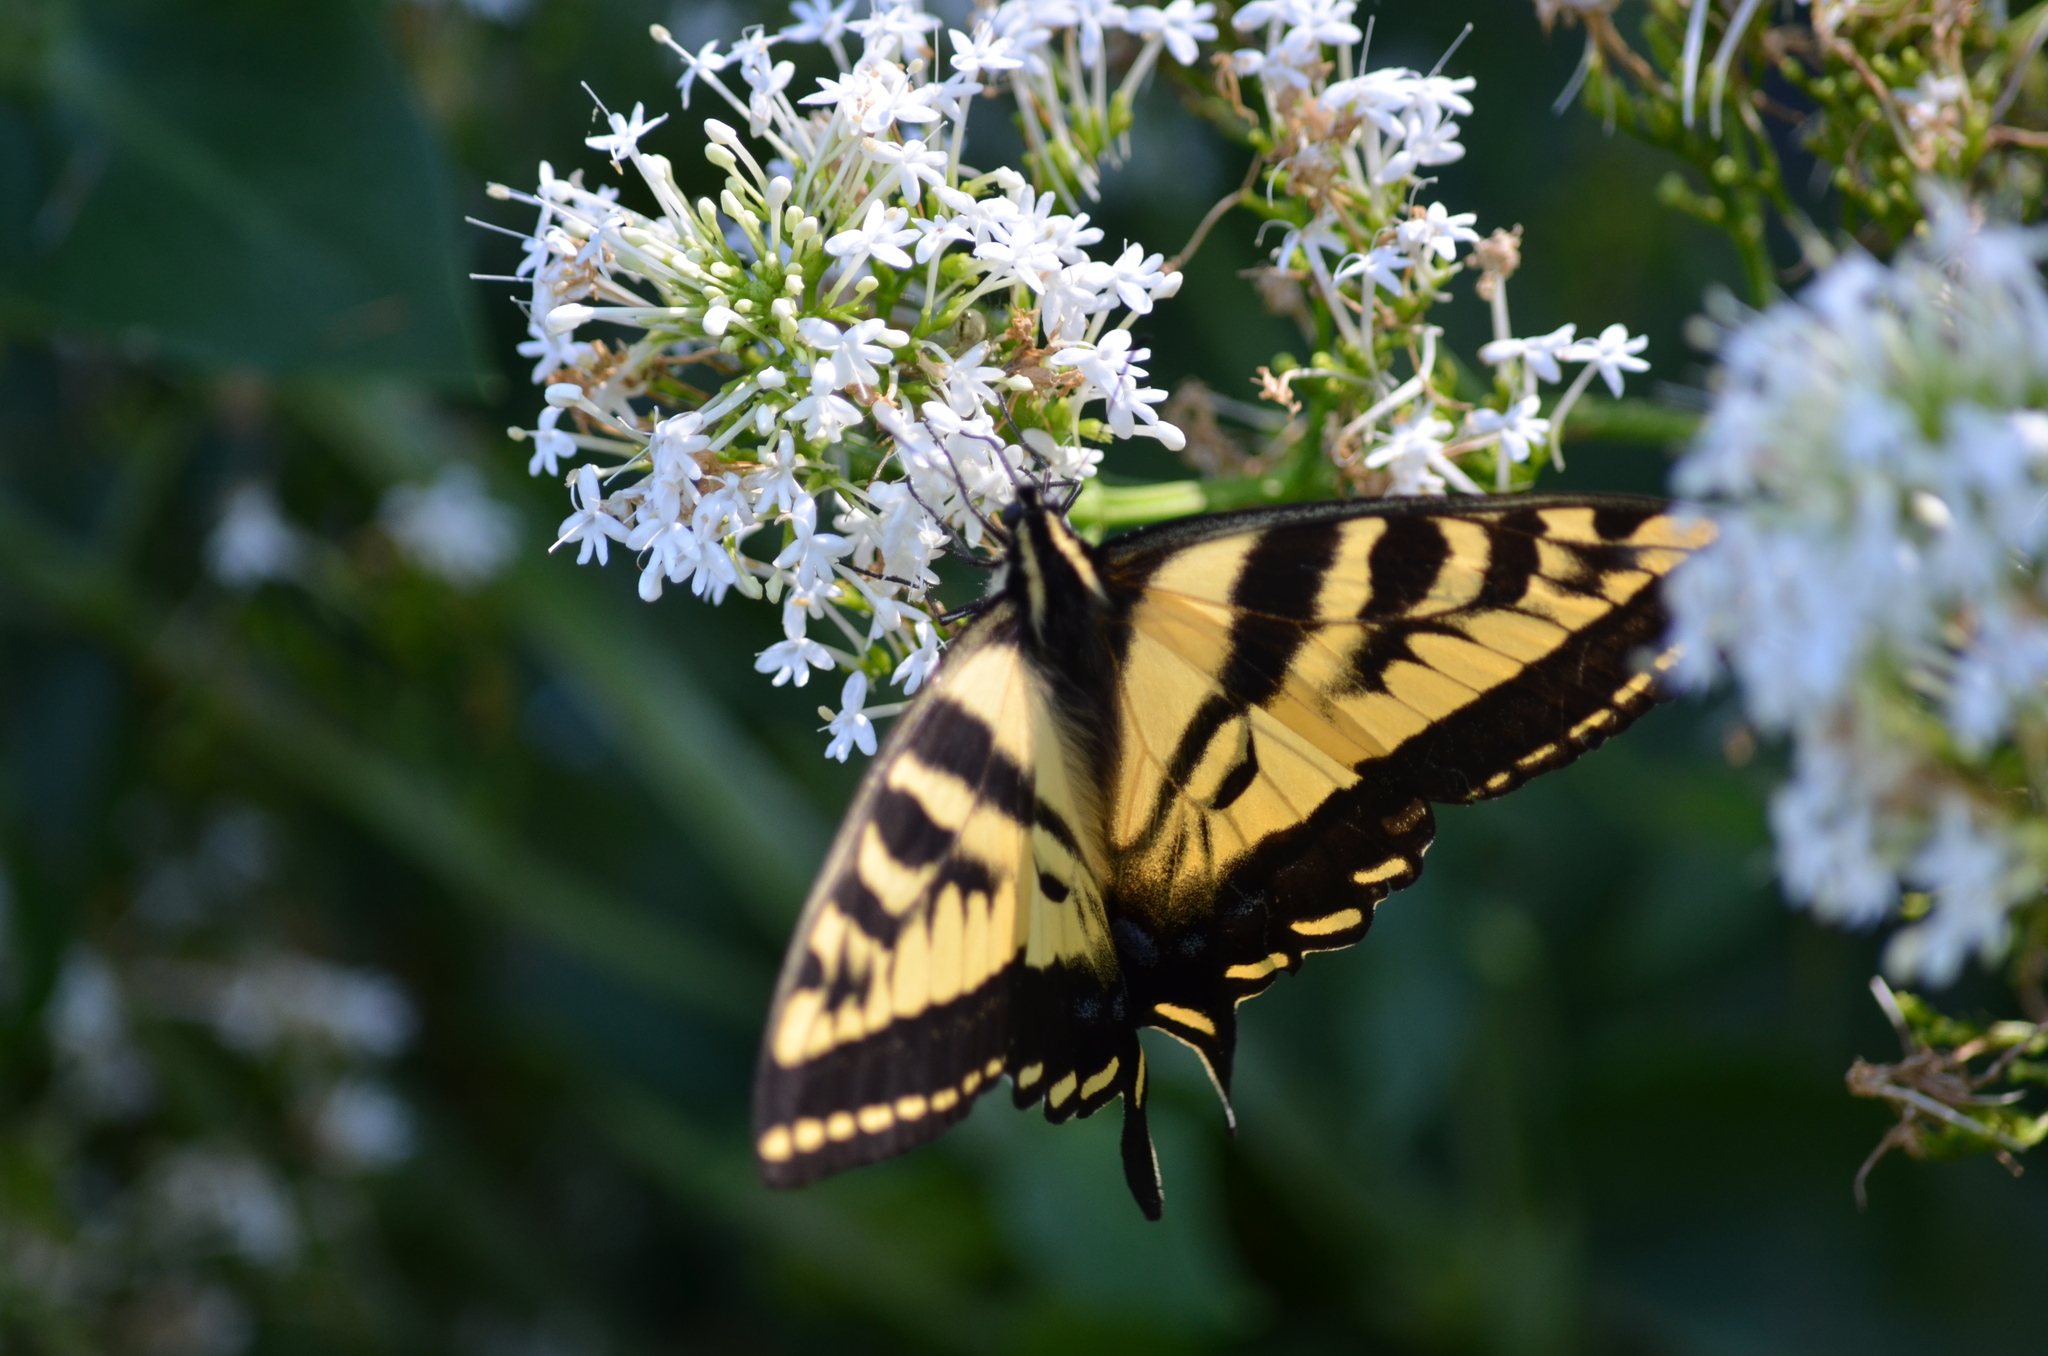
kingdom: Animalia
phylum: Arthropoda
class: Insecta
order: Lepidoptera
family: Papilionidae
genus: Papilio
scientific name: Papilio rutulus
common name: Western tiger swallowtail
